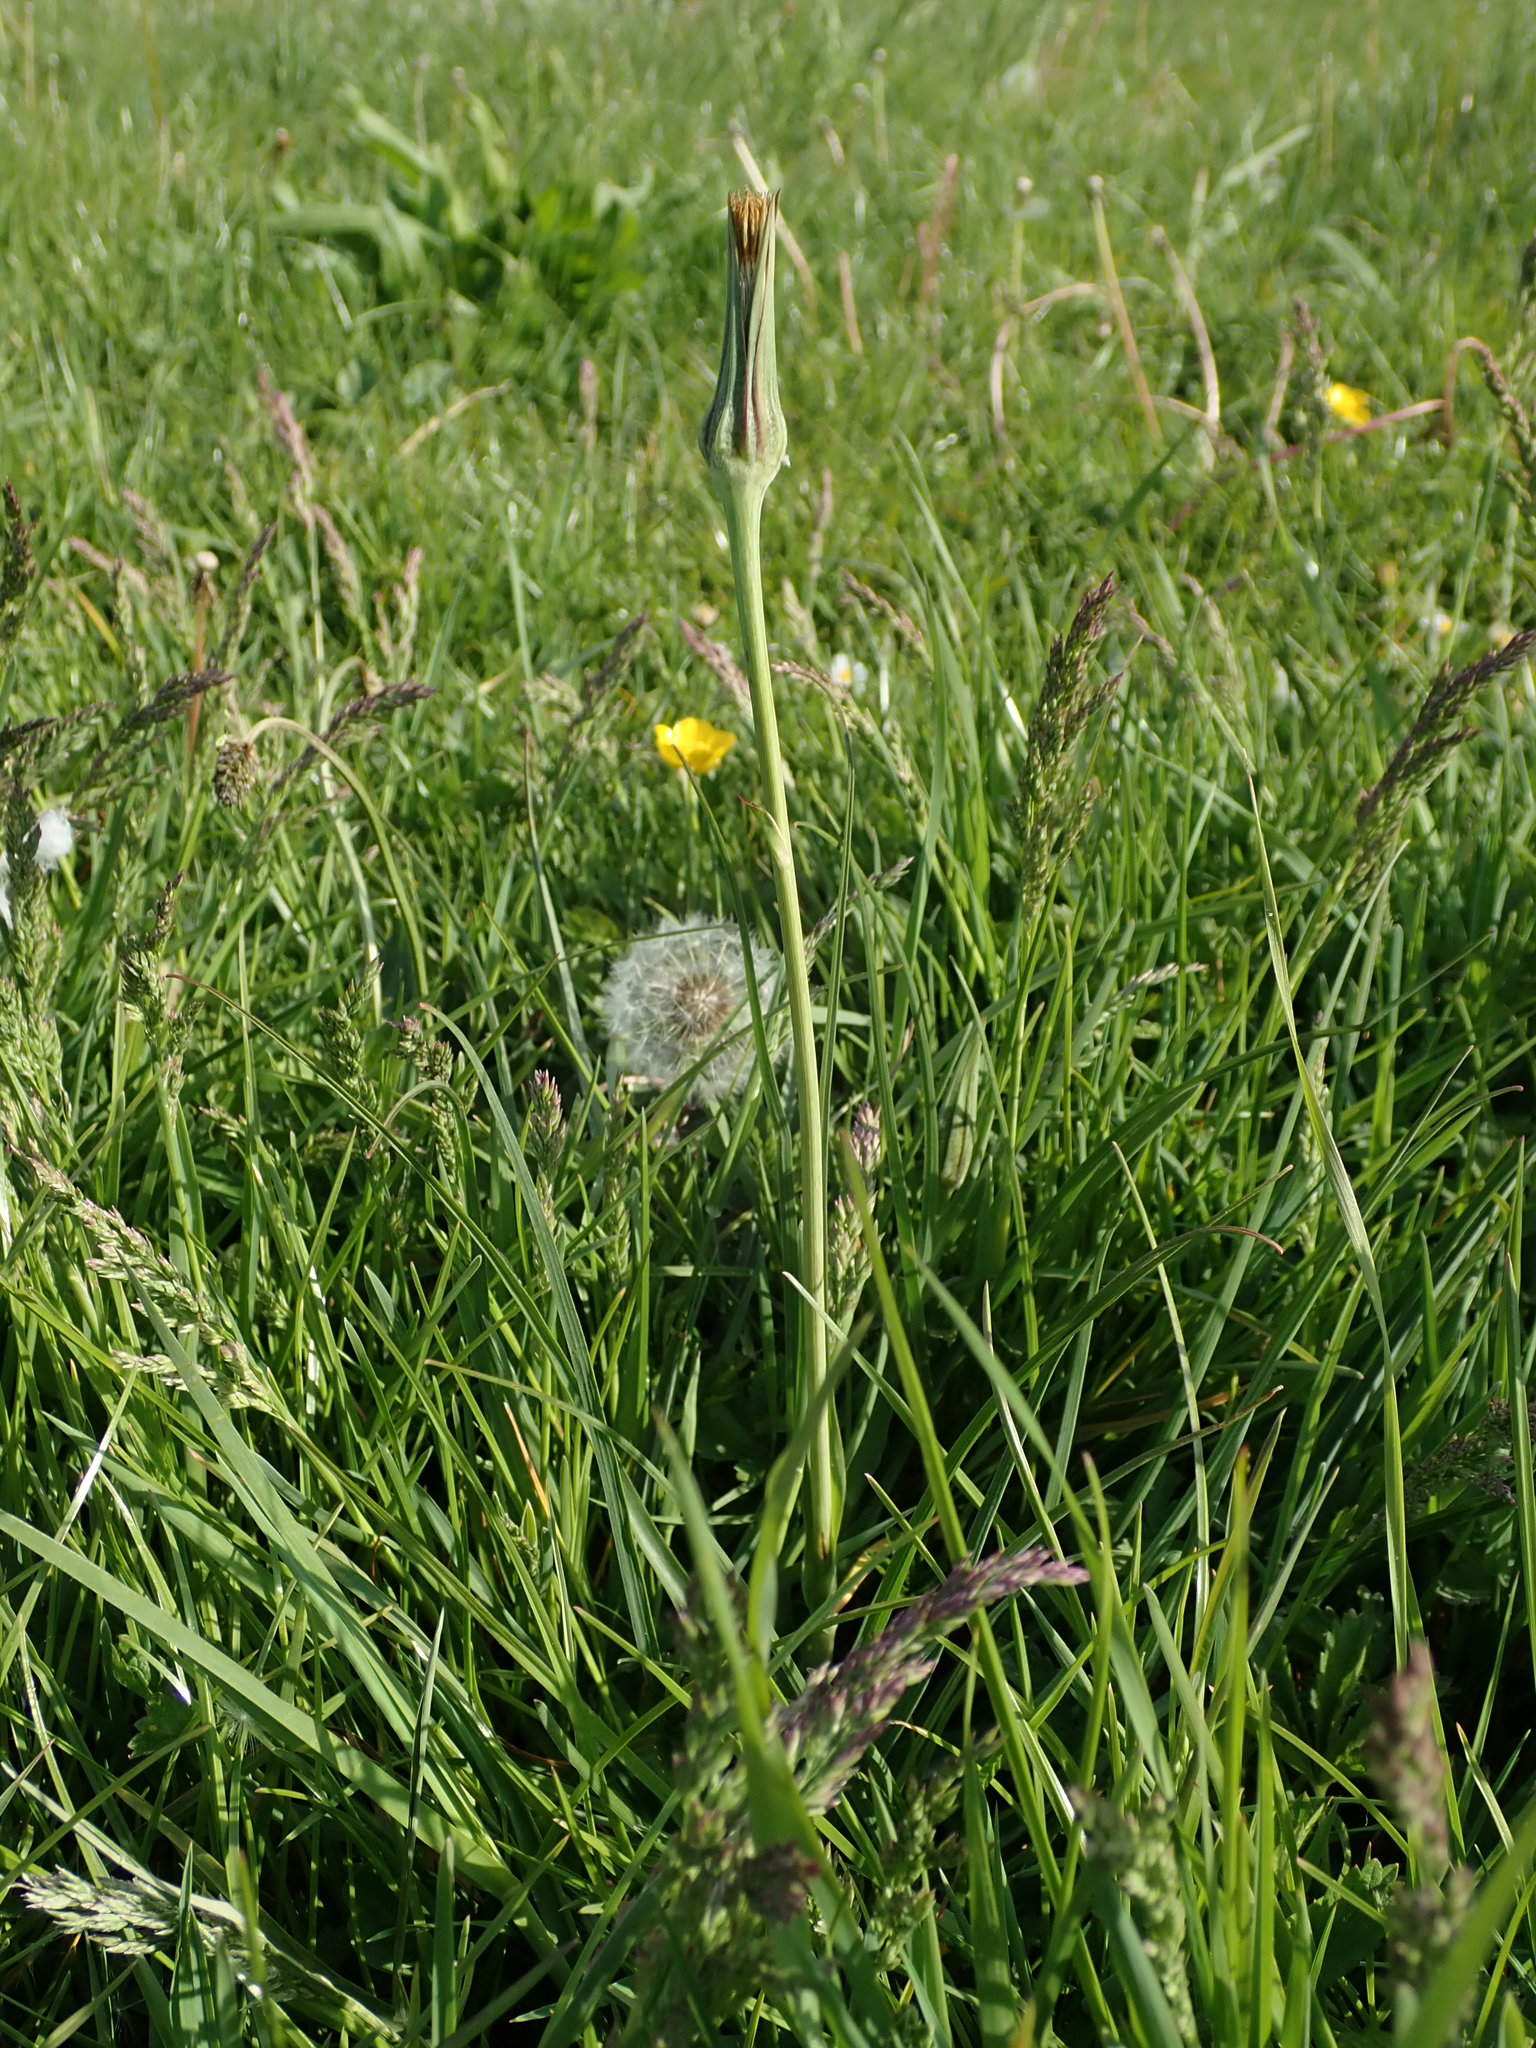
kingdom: Plantae
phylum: Tracheophyta
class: Magnoliopsida
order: Asterales
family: Asteraceae
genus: Tragopogon
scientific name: Tragopogon pratensis
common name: Goat's-beard
